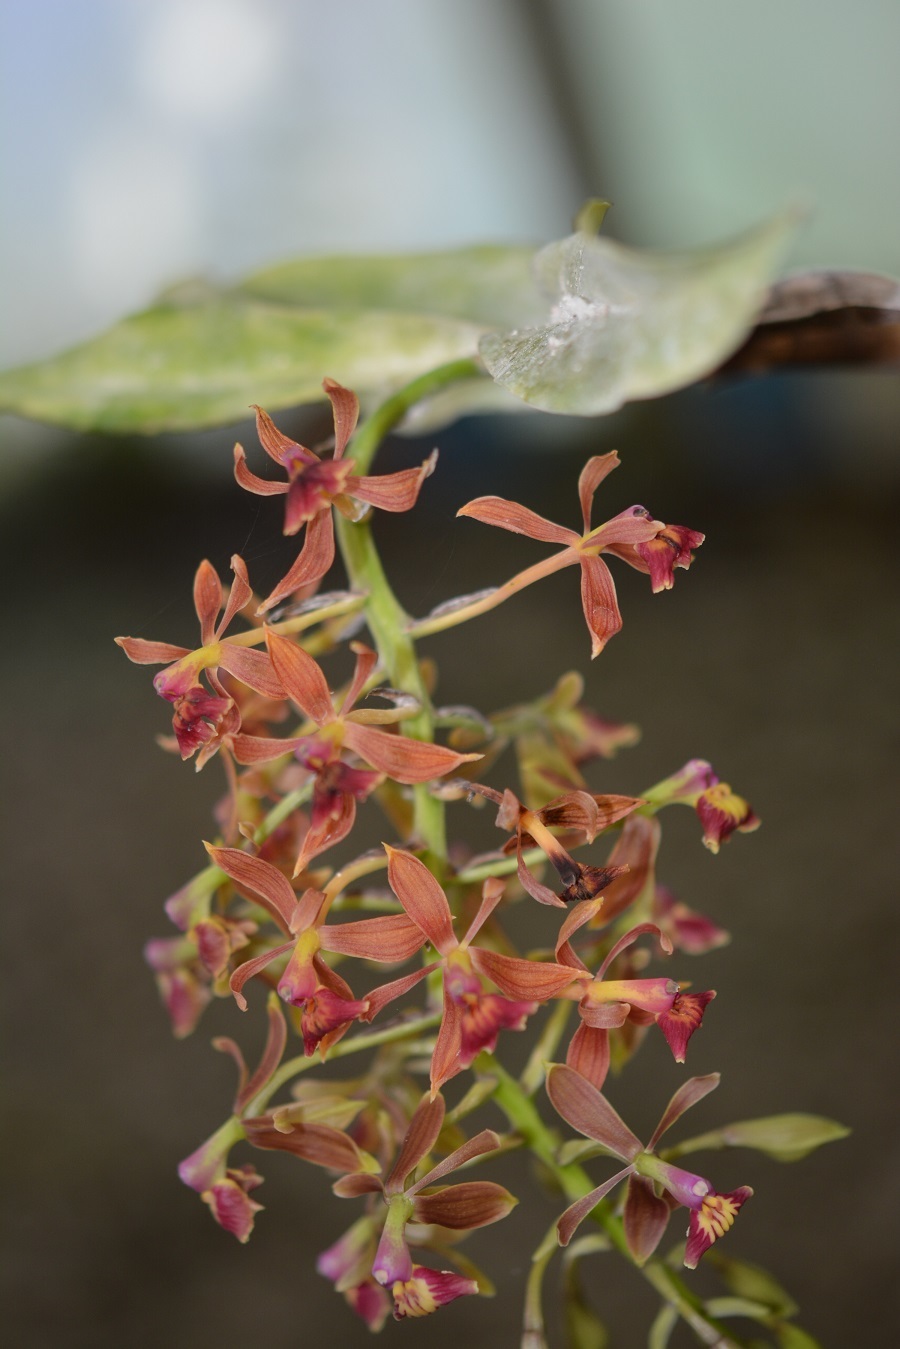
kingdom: Plantae
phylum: Tracheophyta
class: Liliopsida
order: Asparagales
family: Orchidaceae
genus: Epidendrum
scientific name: Epidendrum radioferens
